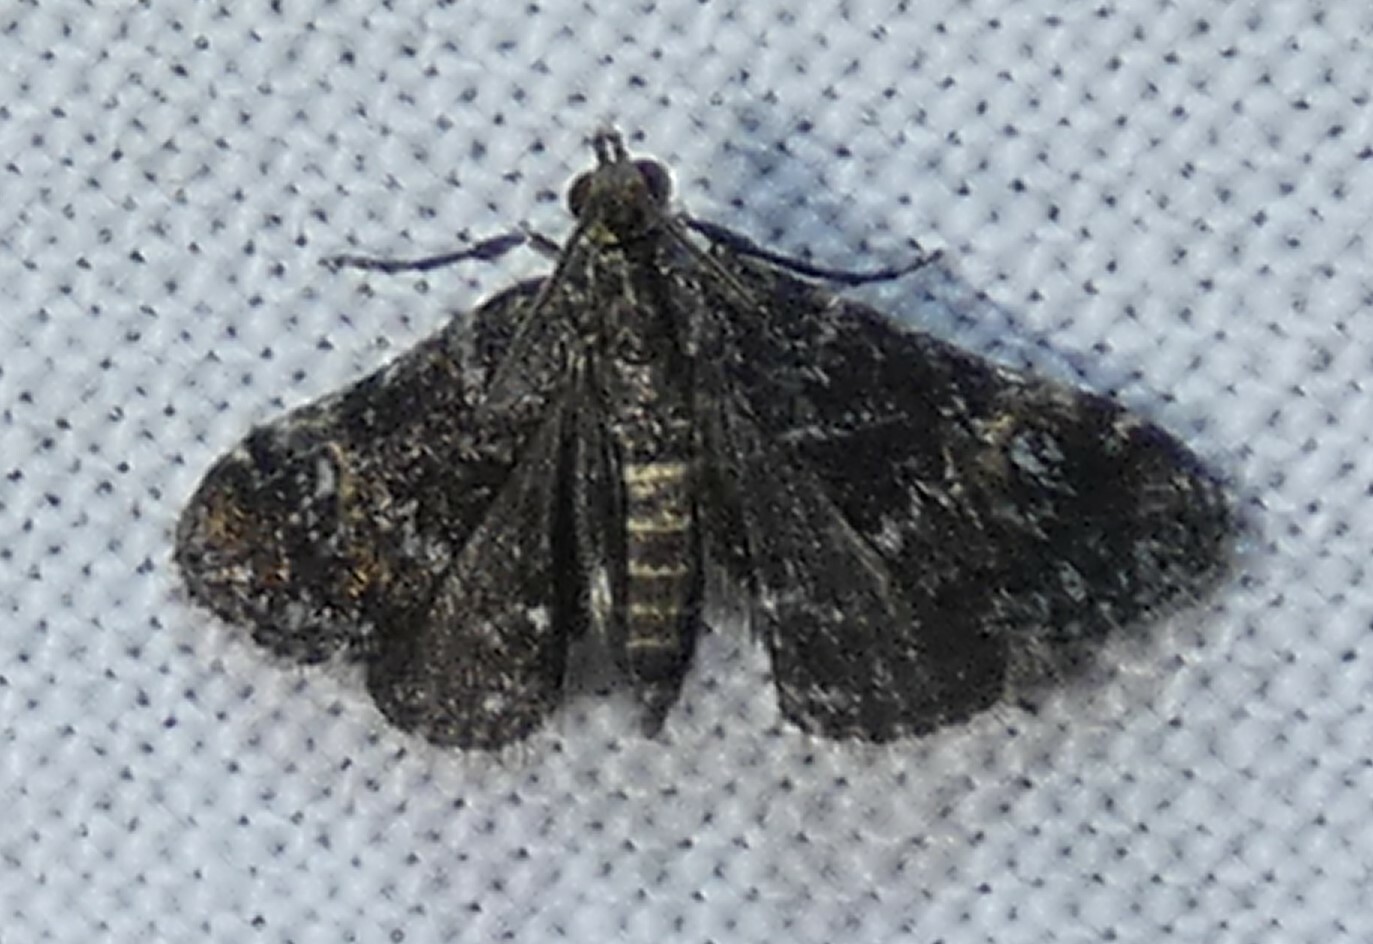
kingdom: Animalia
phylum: Arthropoda
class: Insecta
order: Lepidoptera
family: Crambidae
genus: Elophila
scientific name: Elophila obliteralis
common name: Waterlily leafcutter moth
